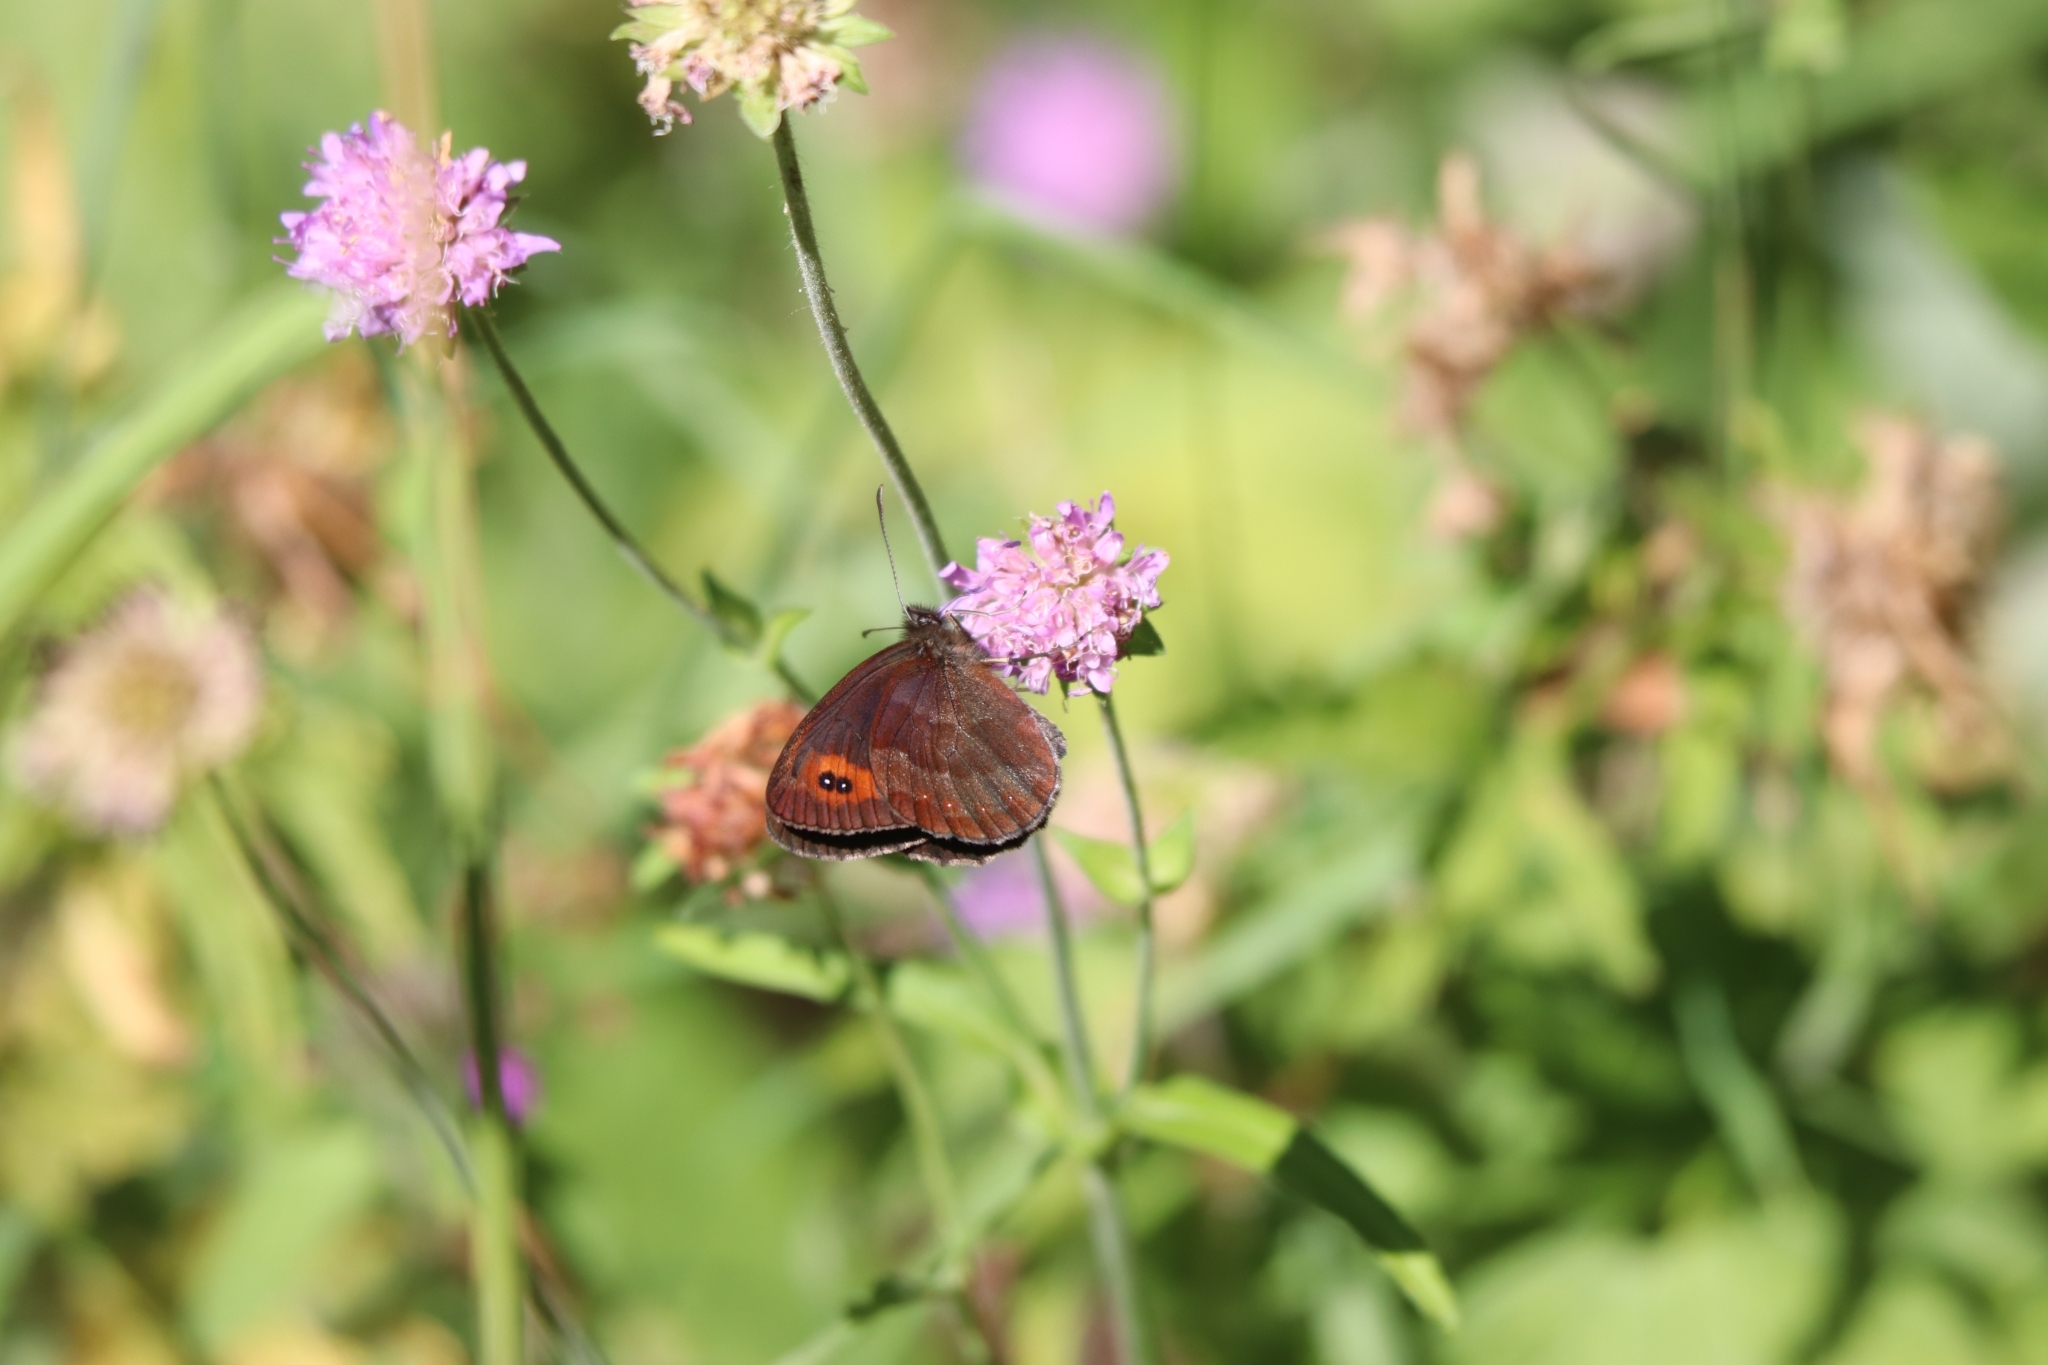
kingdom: Animalia
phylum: Arthropoda
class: Insecta
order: Lepidoptera
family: Nymphalidae
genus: Erebia
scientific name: Erebia aethiops
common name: Scotch argus
